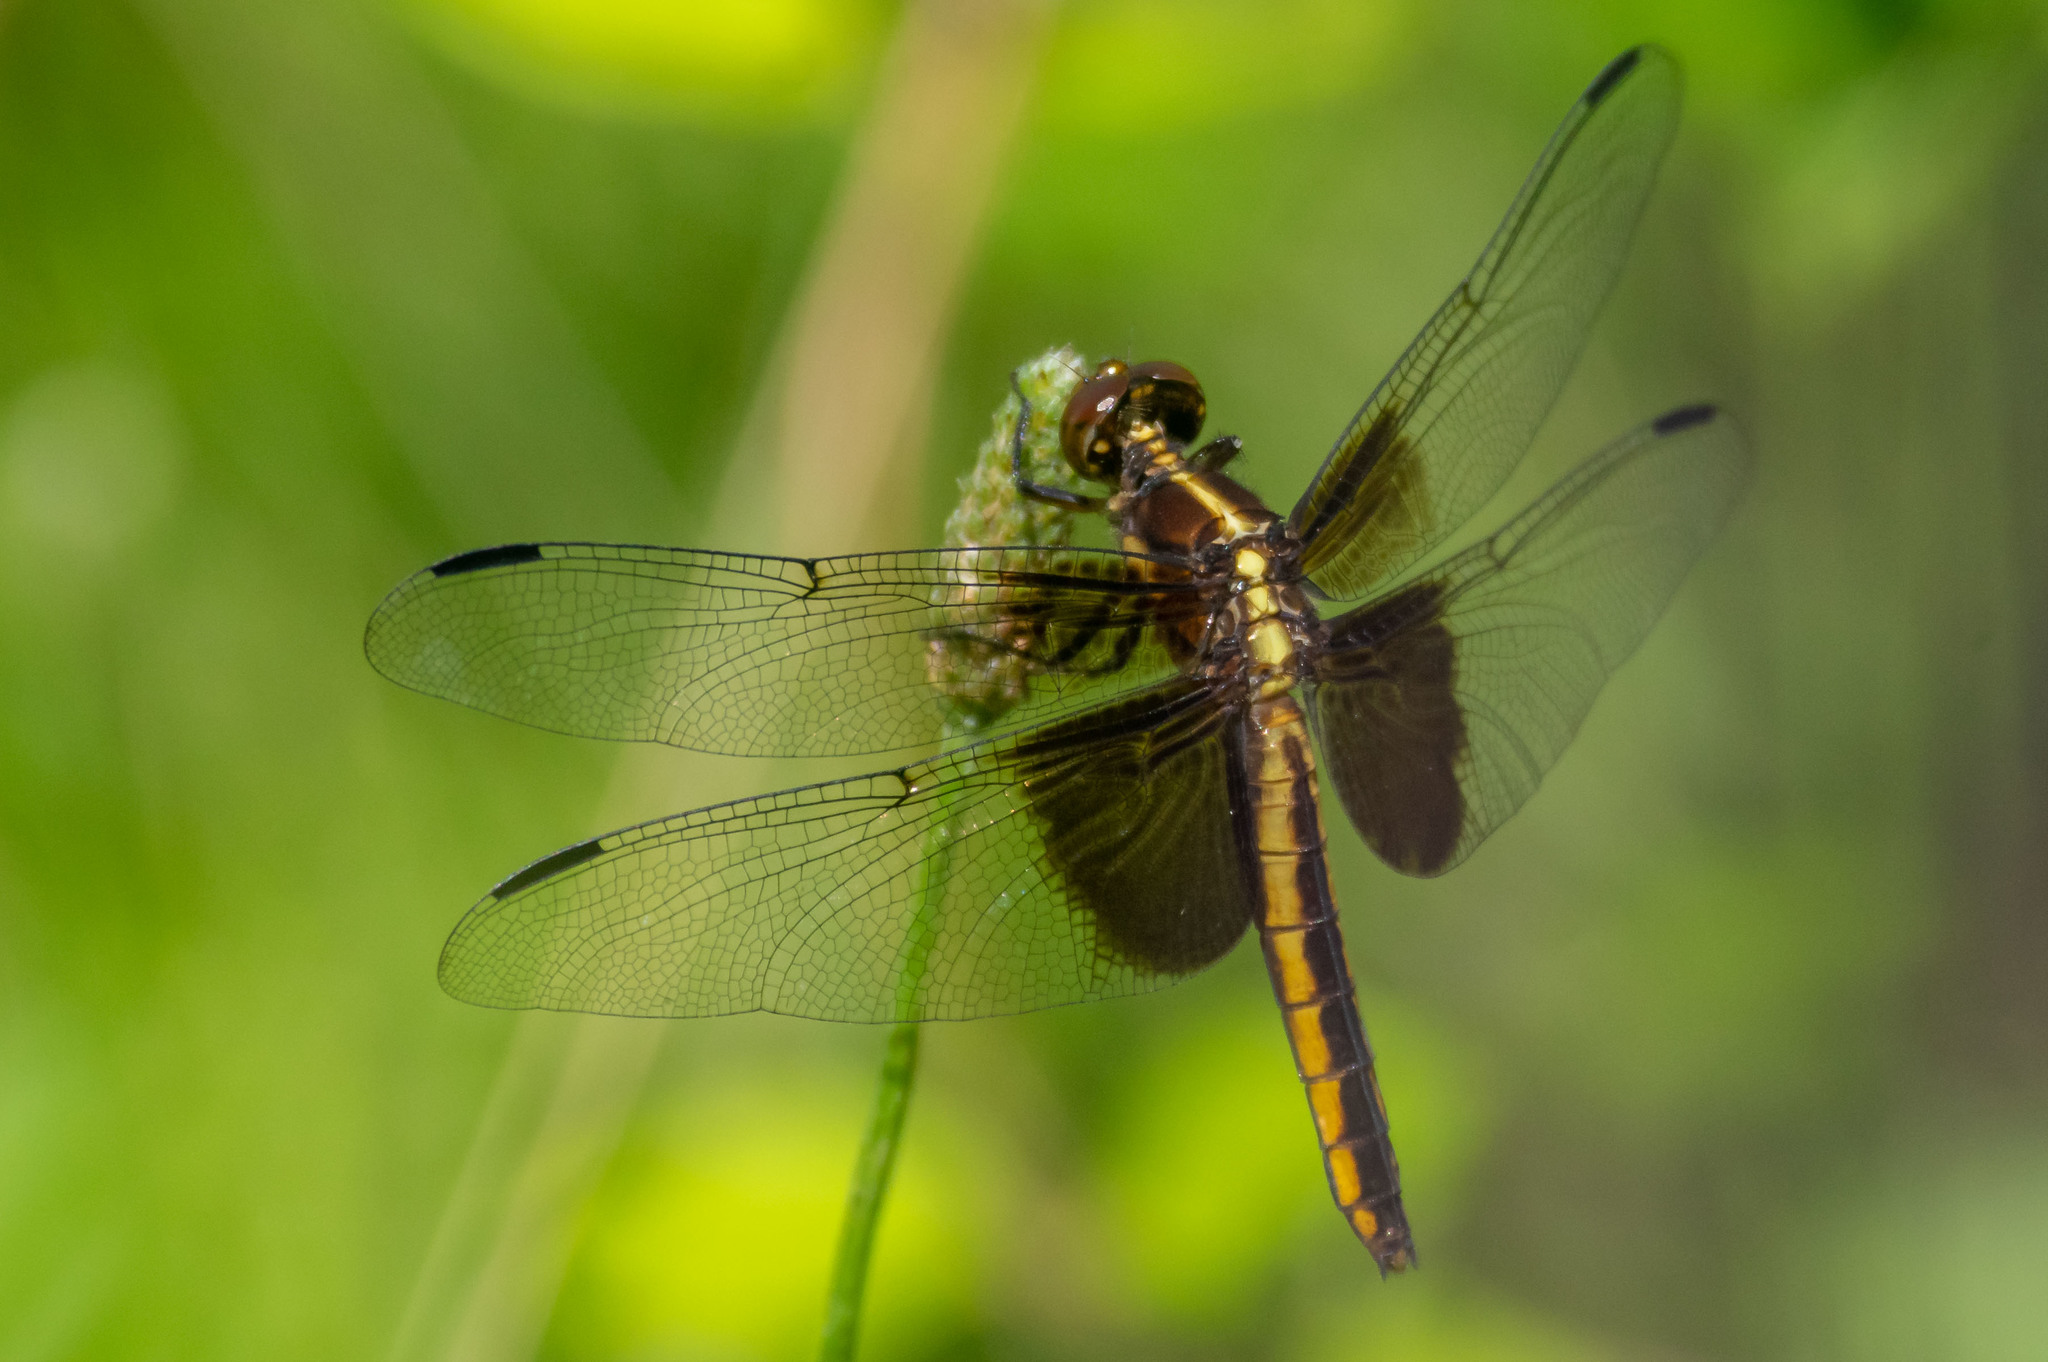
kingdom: Animalia
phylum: Arthropoda
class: Insecta
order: Odonata
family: Libellulidae
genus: Libellula
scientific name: Libellula luctuosa
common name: Widow skimmer
